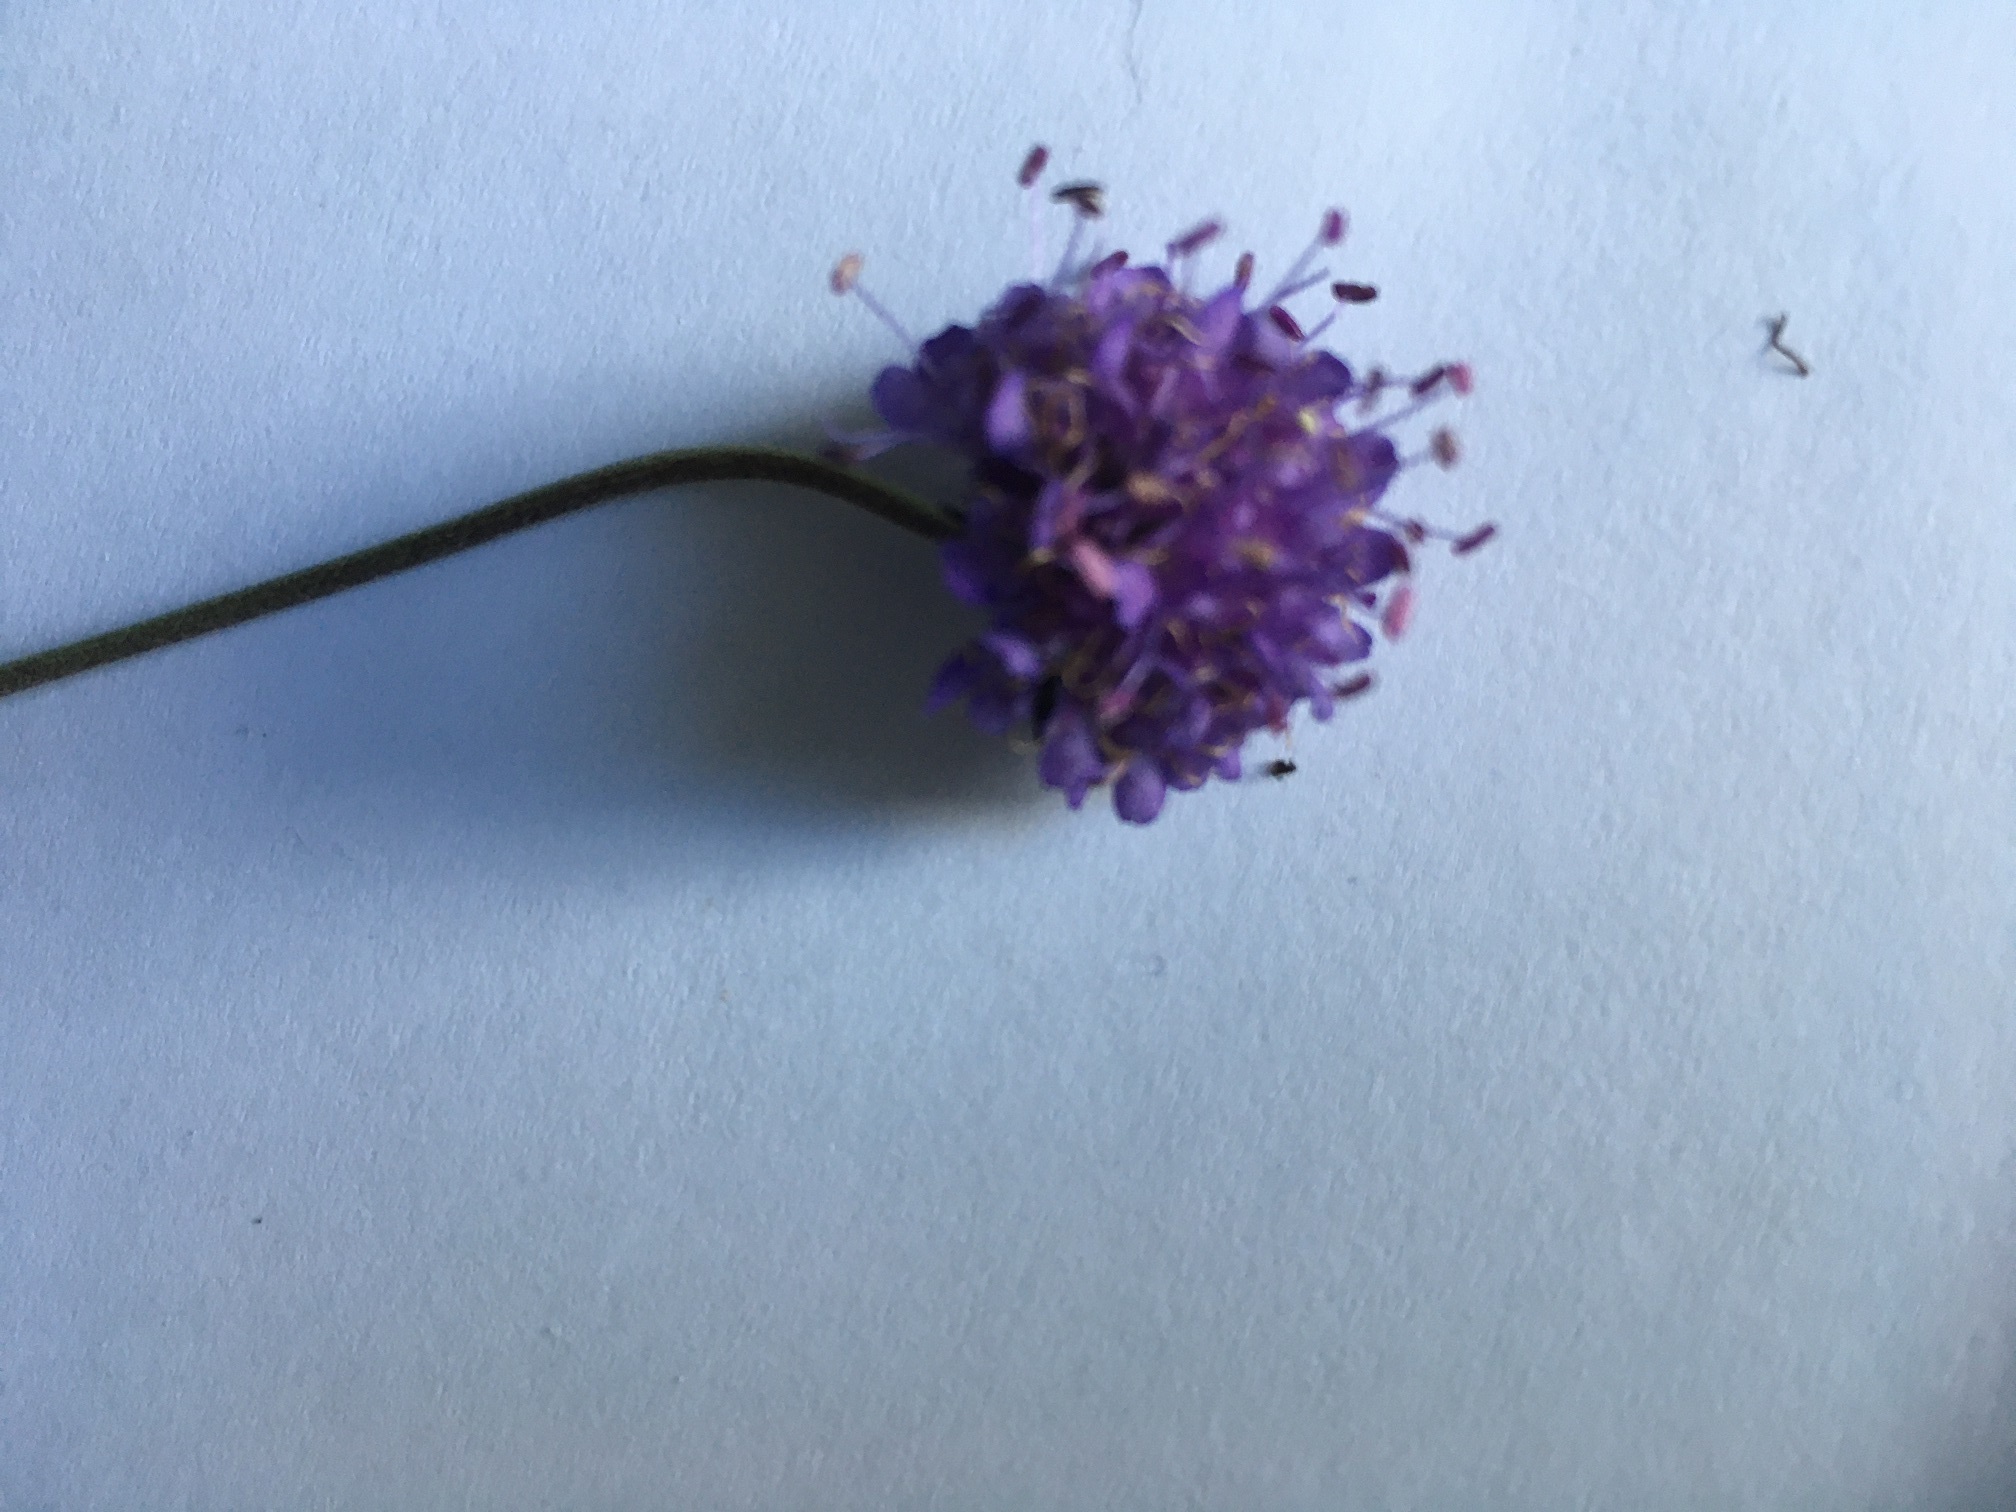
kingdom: Plantae
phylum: Tracheophyta
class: Magnoliopsida
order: Dipsacales
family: Caprifoliaceae
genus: Succisa
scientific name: Succisa pratensis
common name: Devil's-bit
